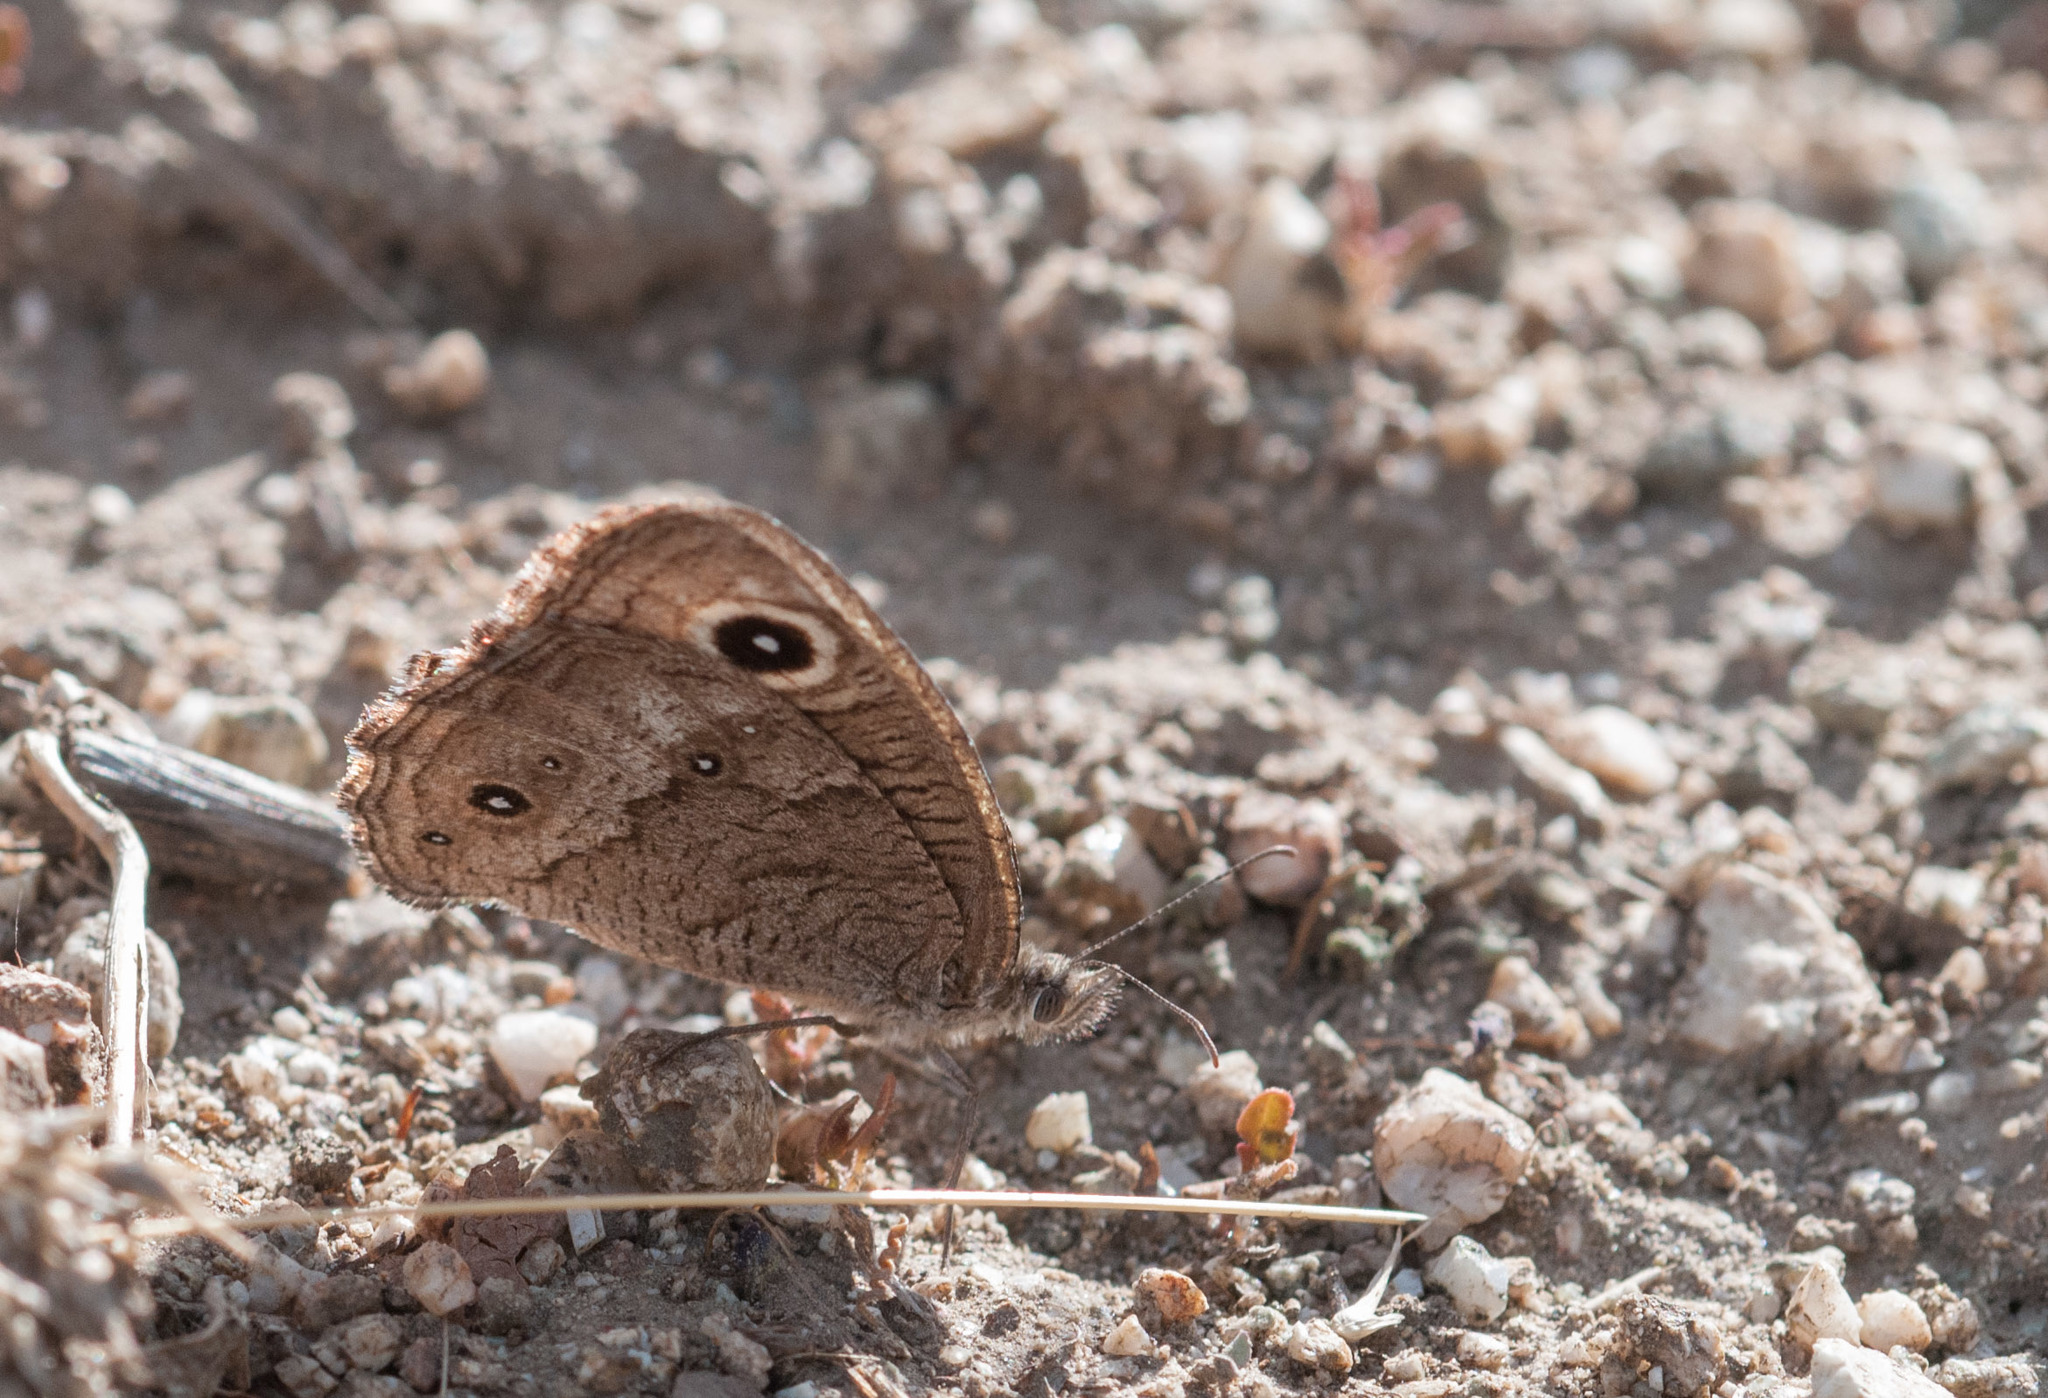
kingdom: Animalia
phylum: Arthropoda
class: Insecta
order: Lepidoptera
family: Nymphalidae
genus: Cercyonis
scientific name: Cercyonis sthenele
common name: Great basin wood-nymph
